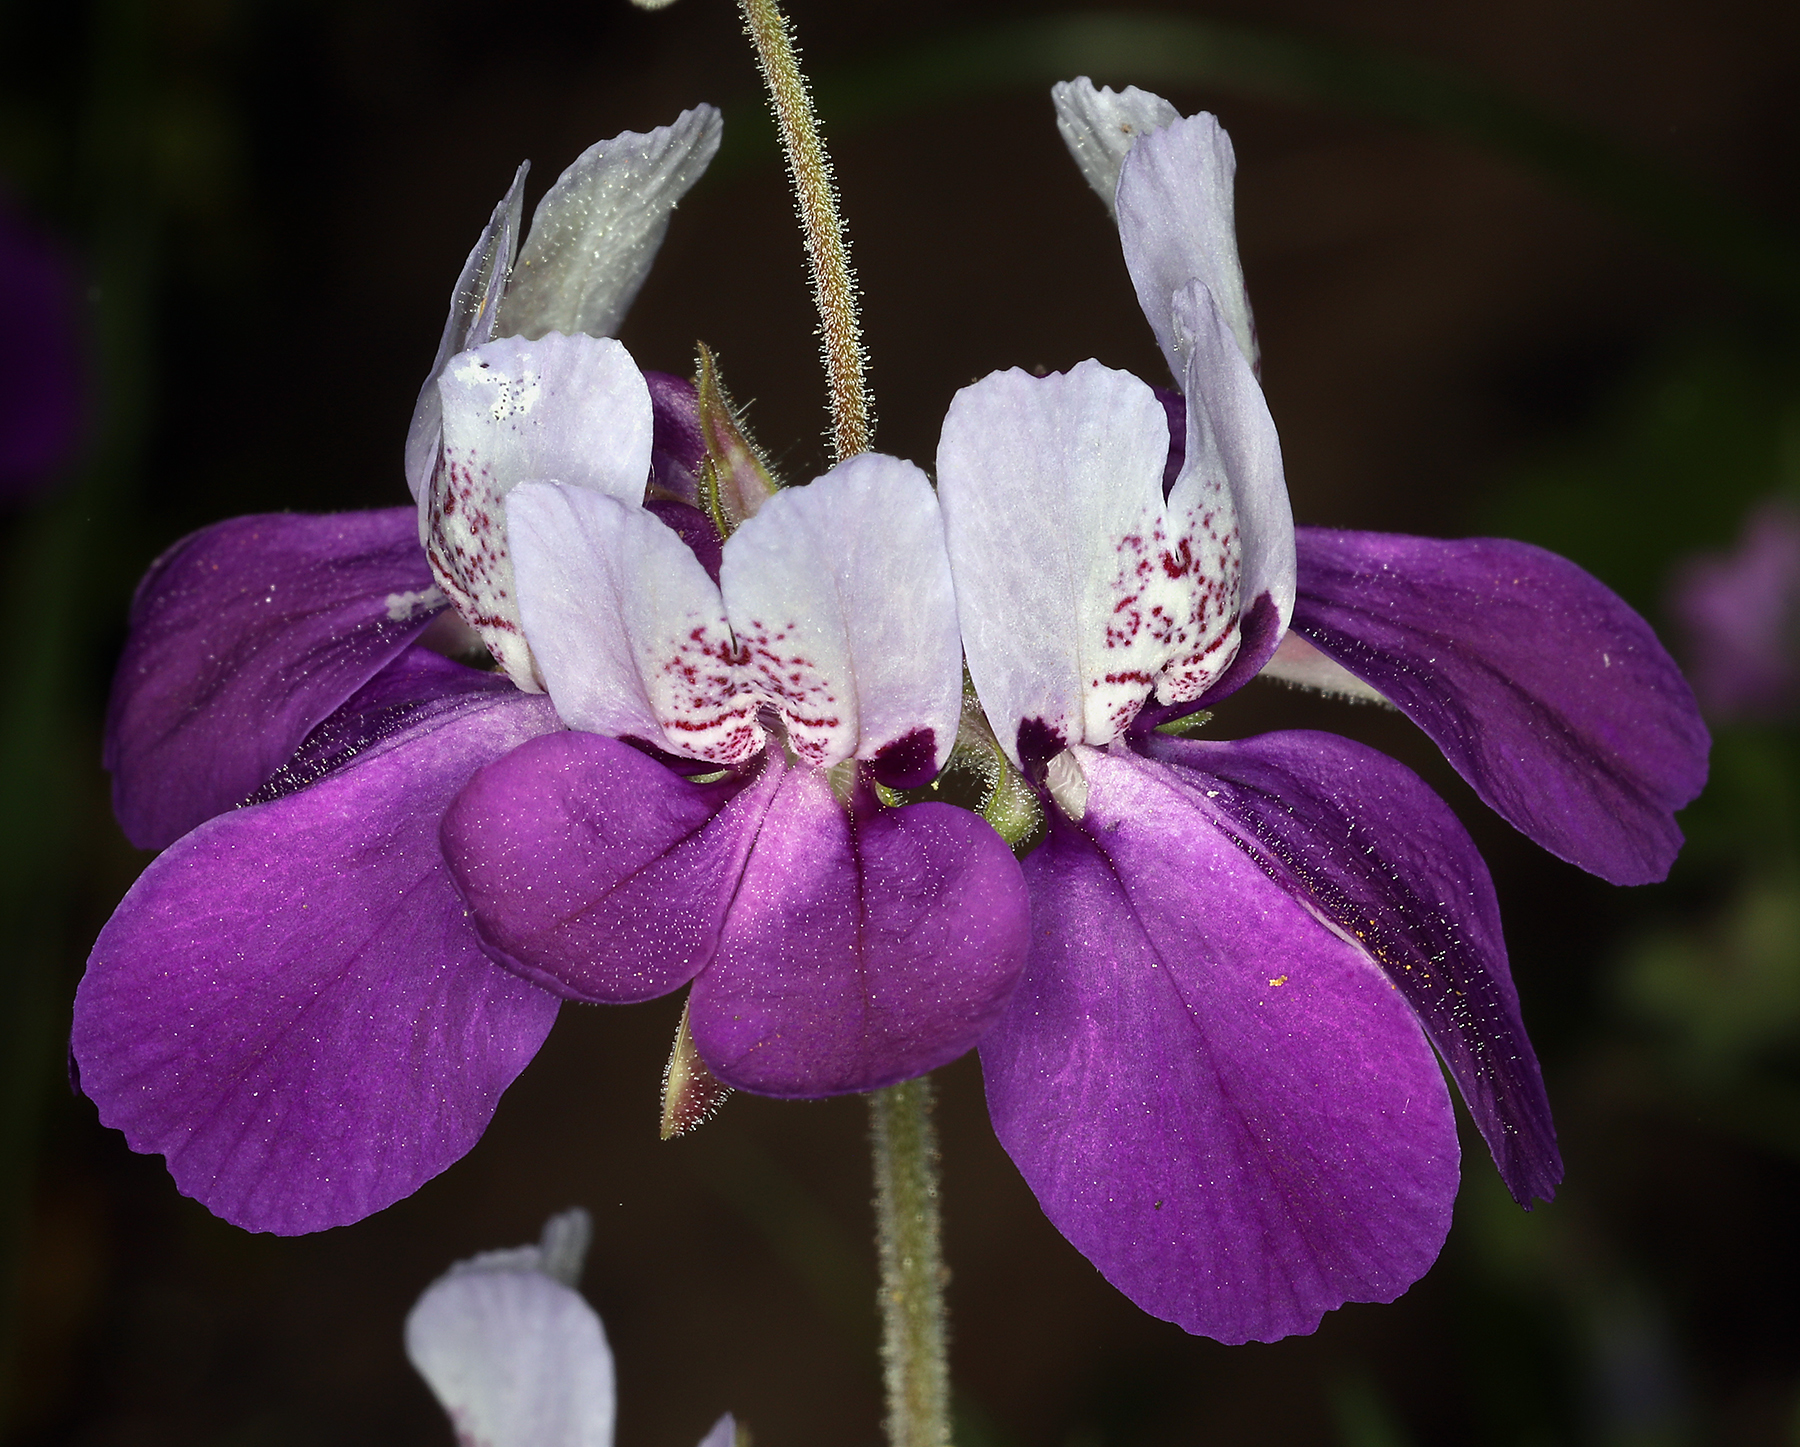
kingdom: Plantae
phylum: Tracheophyta
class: Magnoliopsida
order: Lamiales
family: Plantaginaceae
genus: Collinsia
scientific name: Collinsia heterophylla
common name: Chinese-houses
